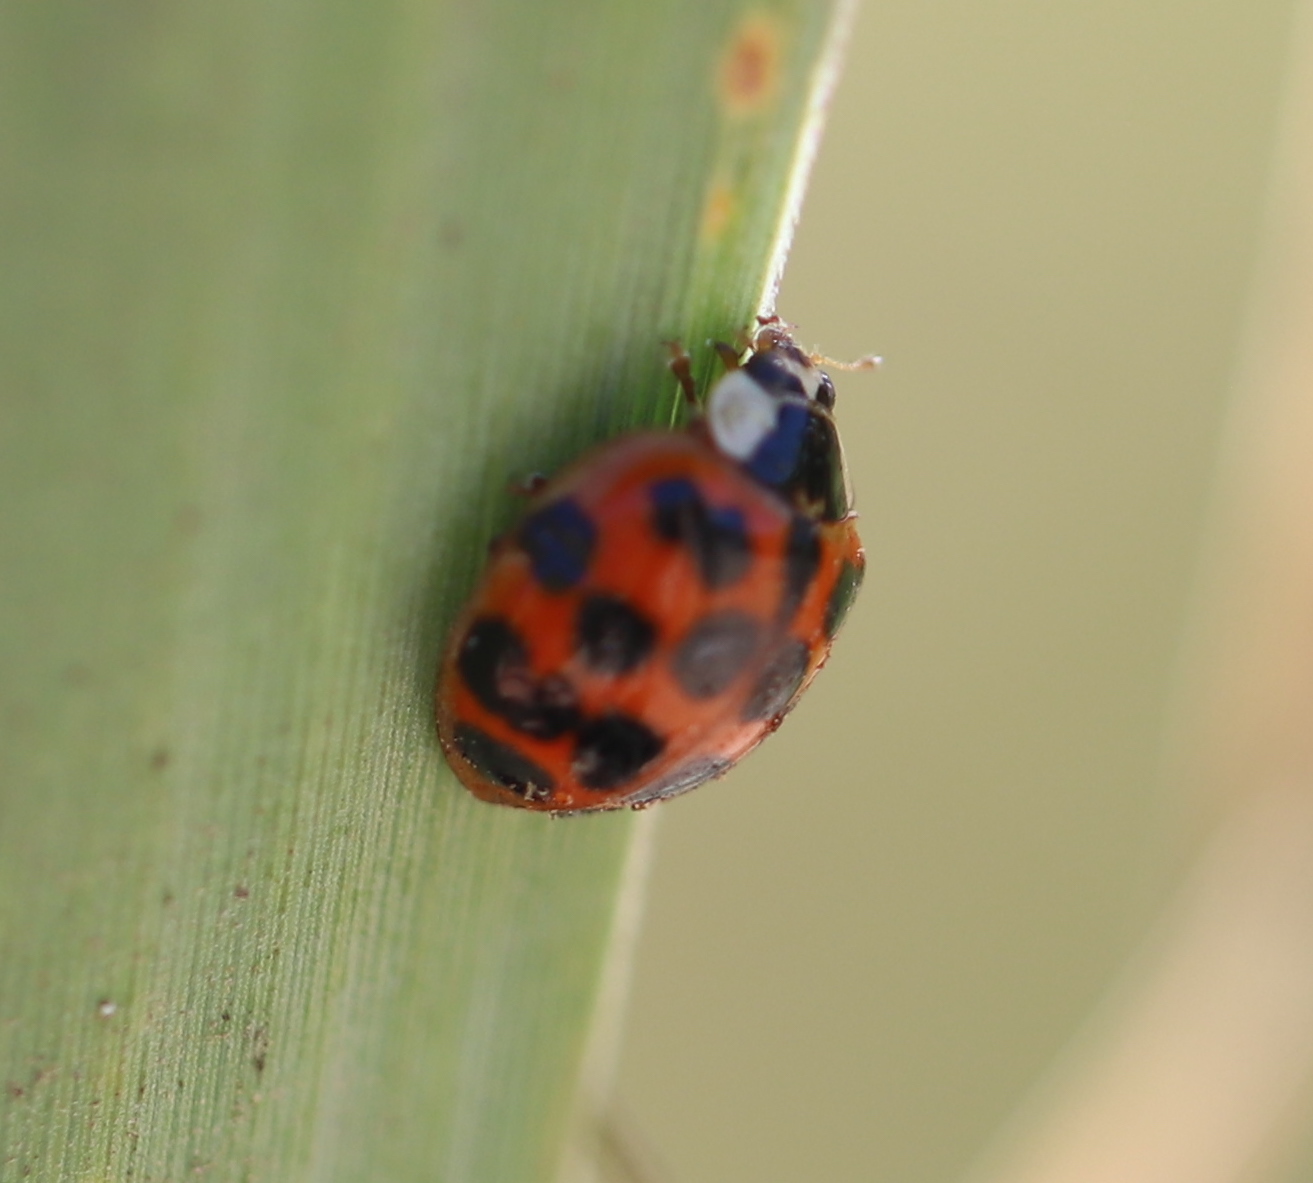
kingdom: Animalia
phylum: Arthropoda
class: Insecta
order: Coleoptera
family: Coccinellidae
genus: Harmonia
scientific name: Harmonia axyridis
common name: Harlequin ladybird
